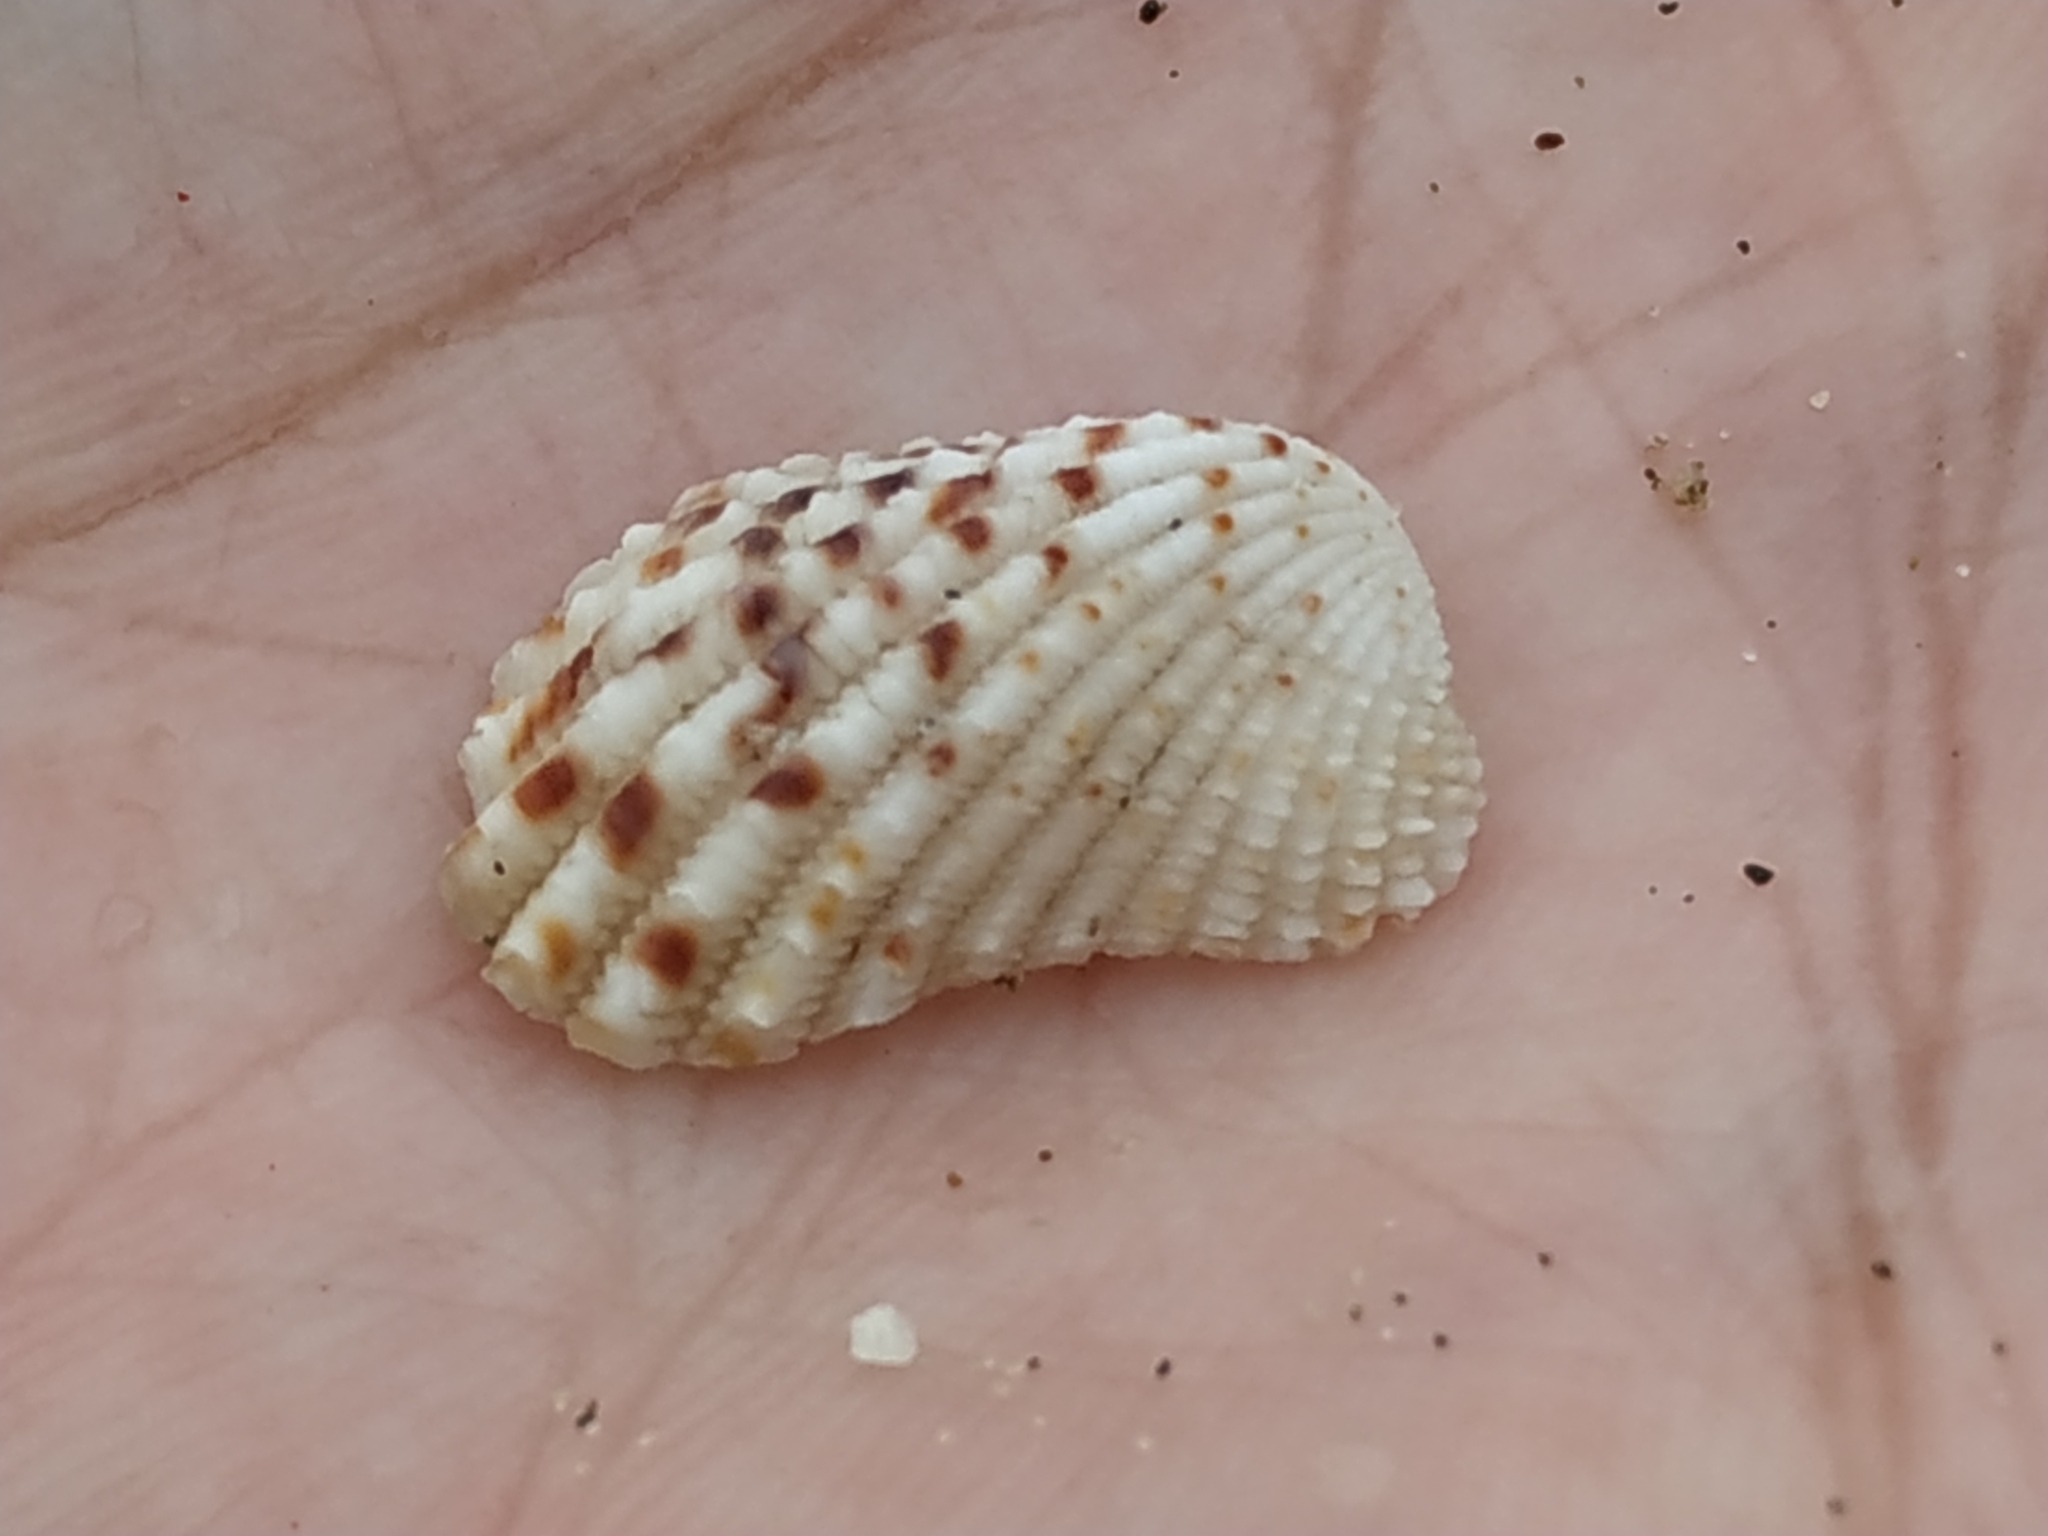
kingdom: Animalia
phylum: Mollusca
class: Bivalvia
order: Carditida
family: Carditidae
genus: Cardita
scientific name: Cardita variegata
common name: Rectangular false cockle
